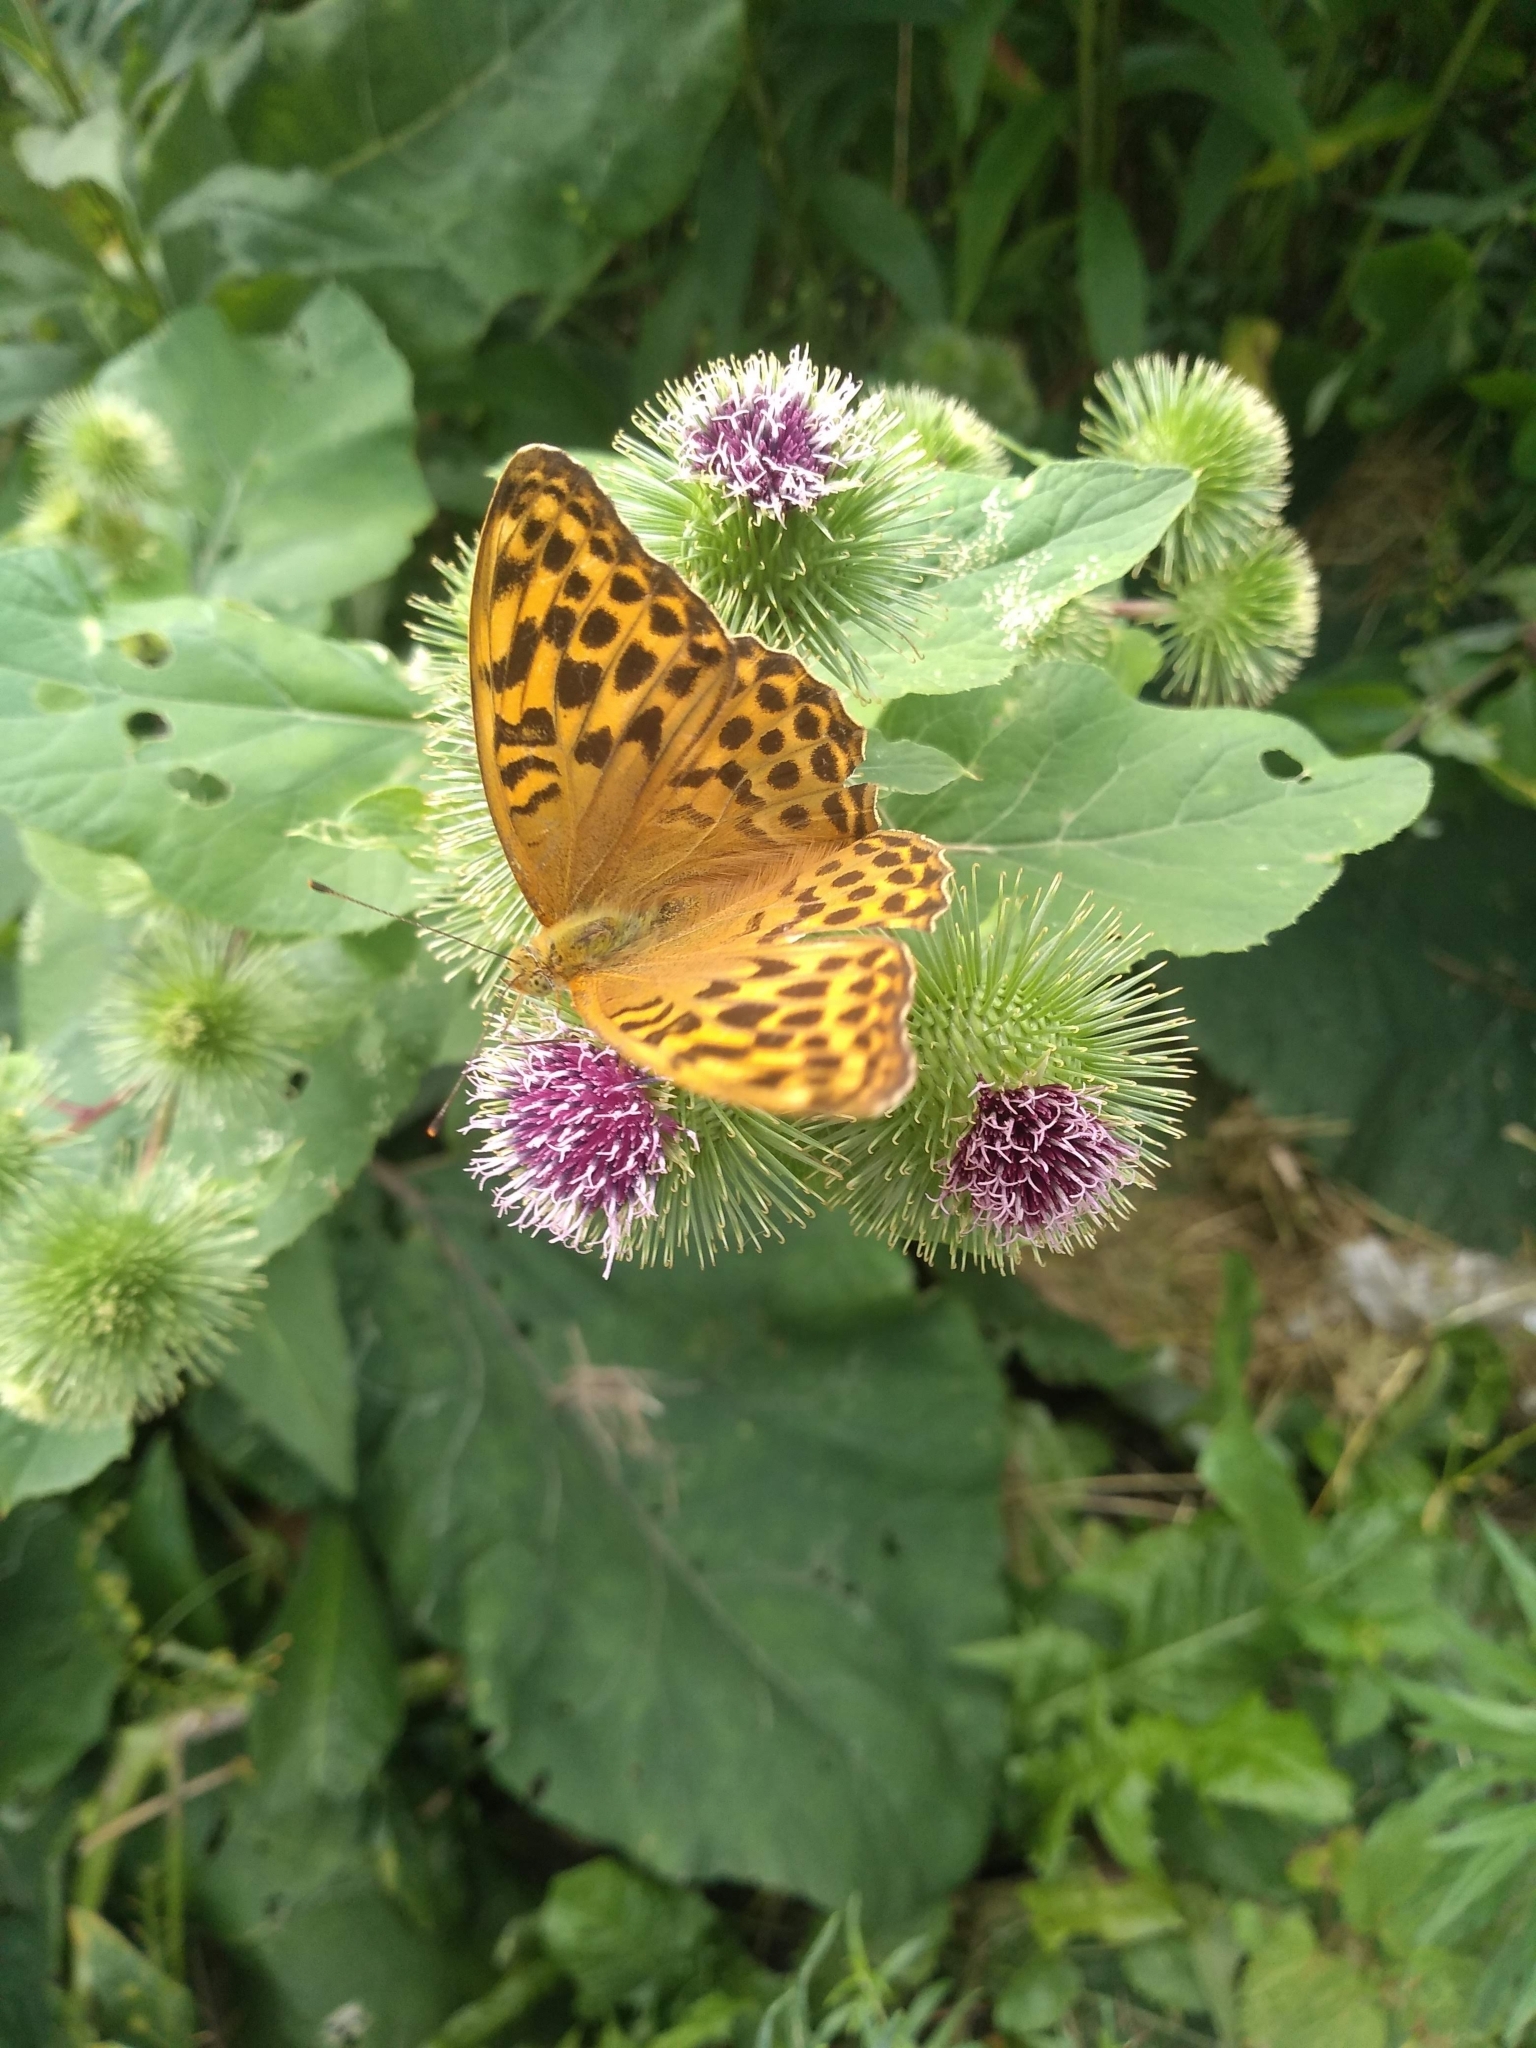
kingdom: Animalia
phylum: Arthropoda
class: Insecta
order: Lepidoptera
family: Nymphalidae
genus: Issoria
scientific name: Issoria lathonia
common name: Queen of spain fritillary
